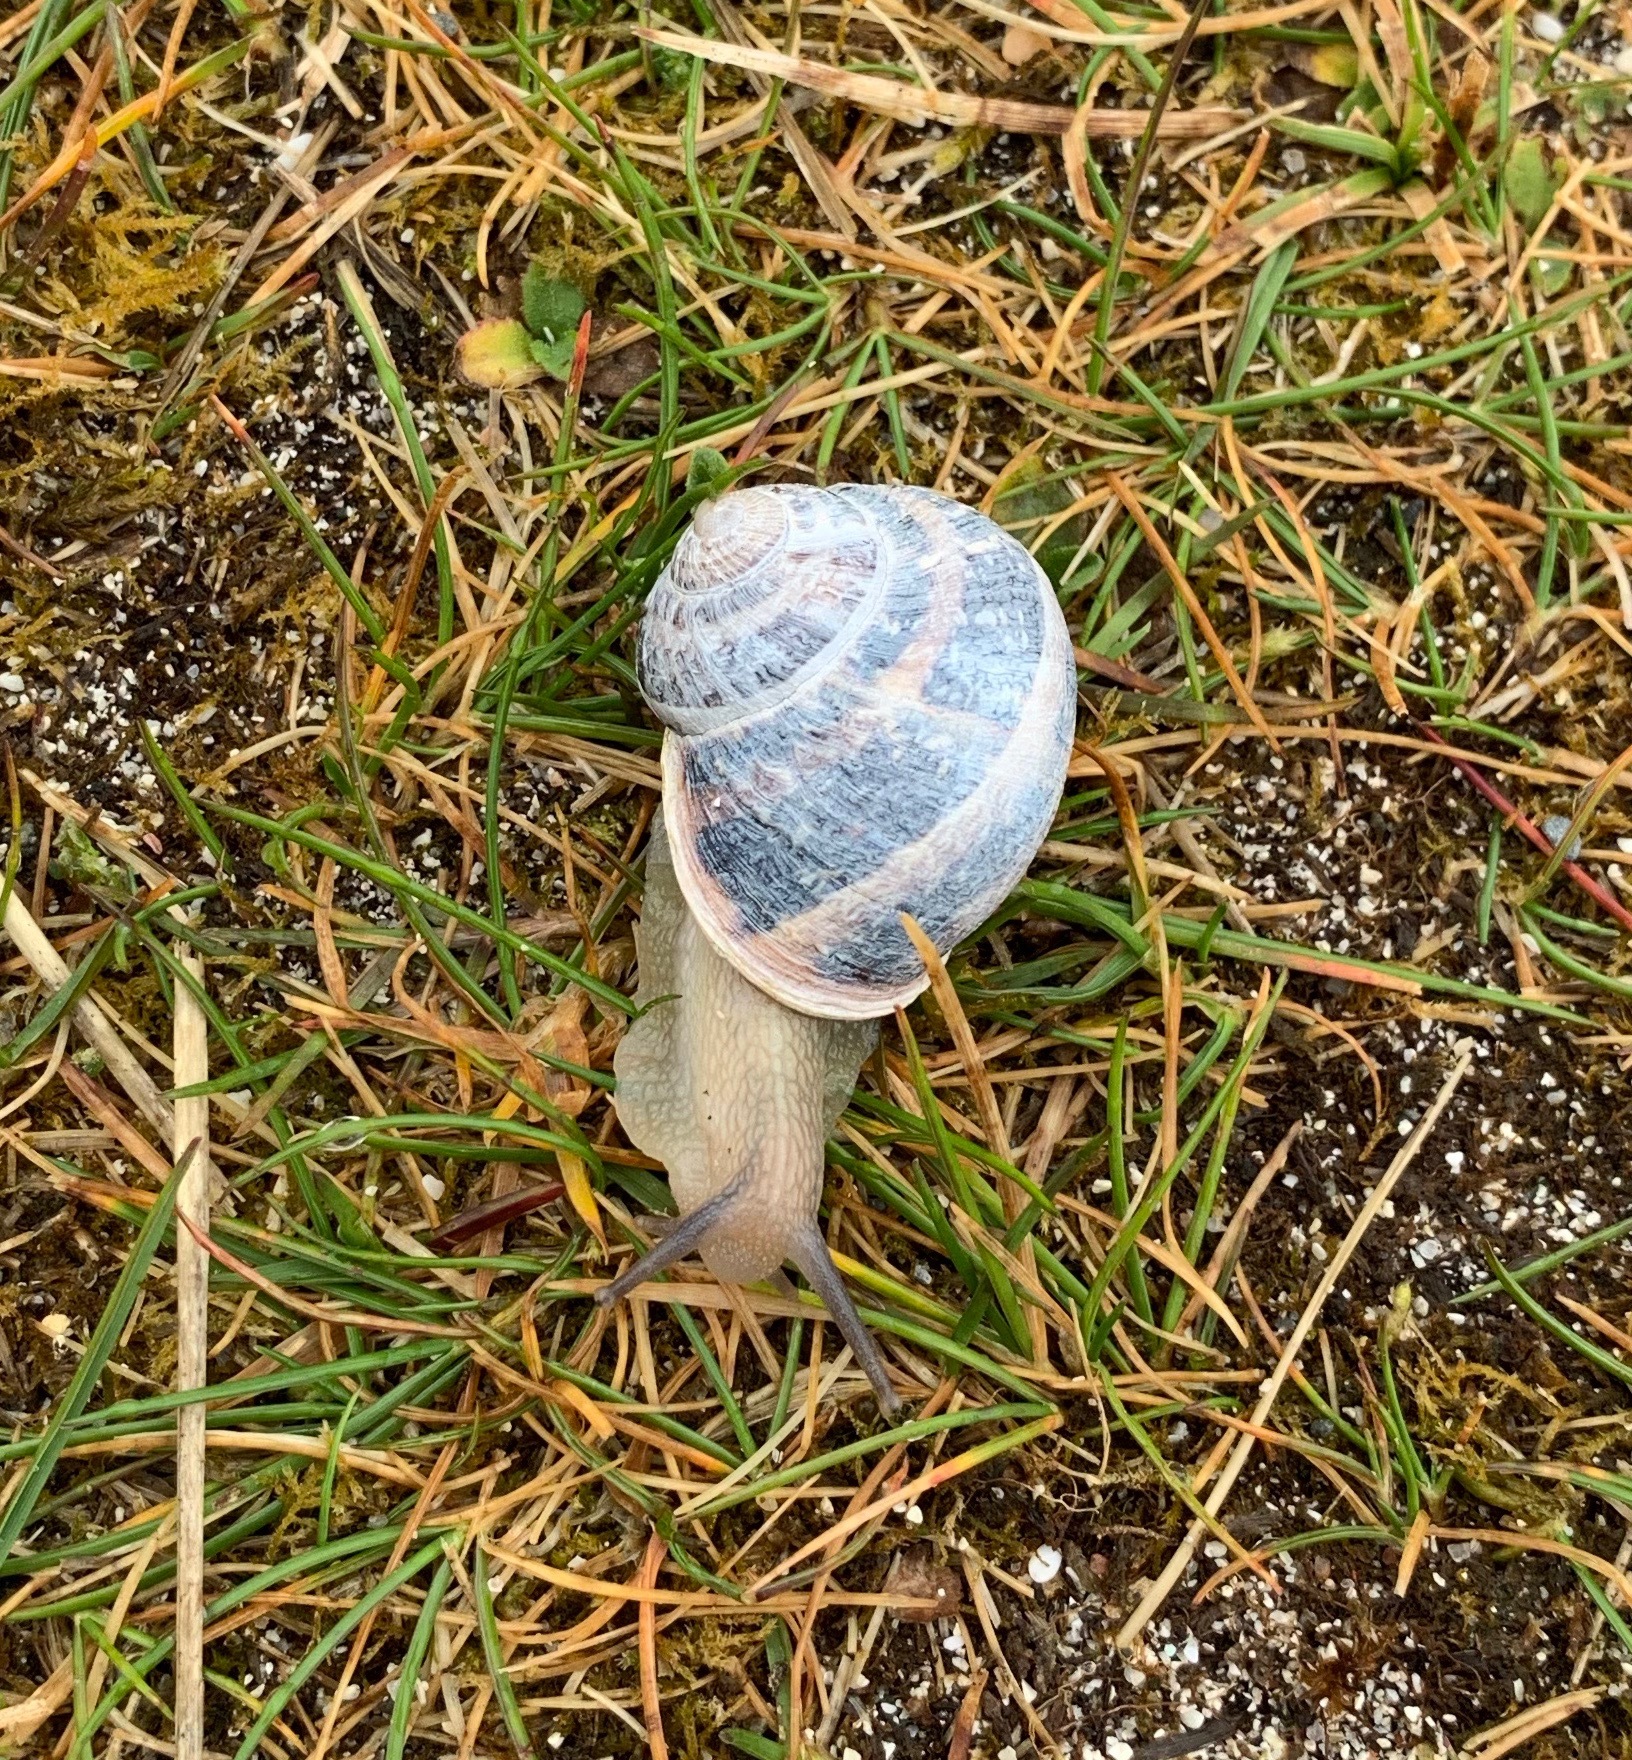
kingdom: Animalia
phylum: Mollusca
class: Gastropoda
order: Stylommatophora
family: Helicidae
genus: Cornu
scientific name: Cornu aspersum
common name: Brown garden snail
